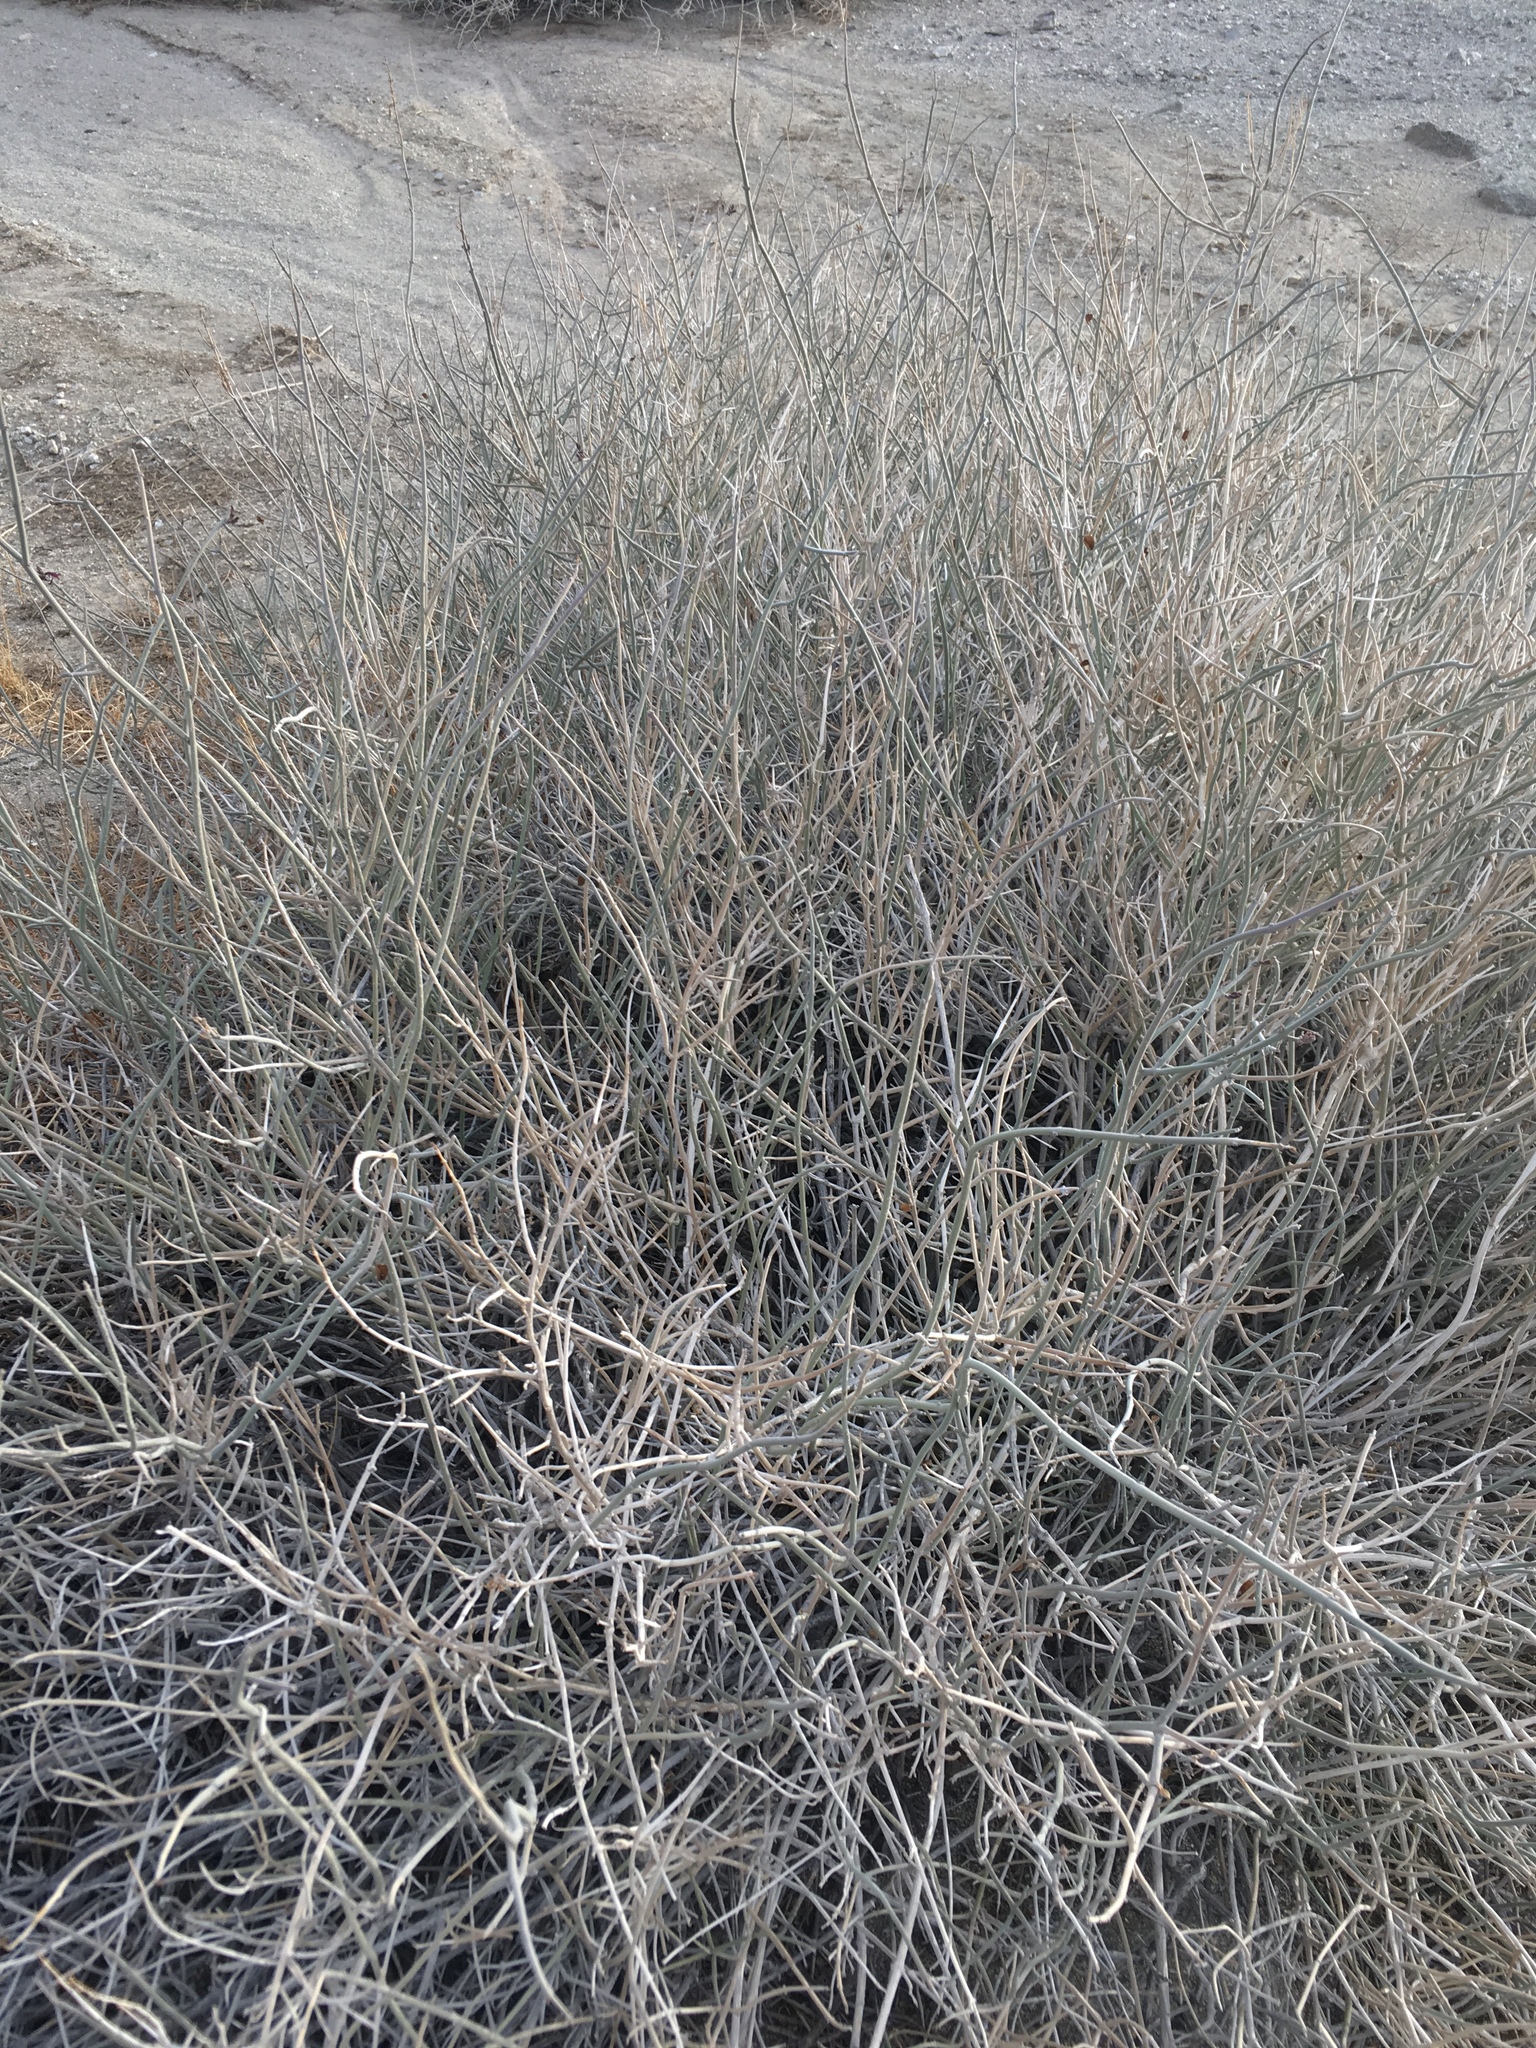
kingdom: Plantae
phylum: Tracheophyta
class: Magnoliopsida
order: Lamiales
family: Acanthaceae
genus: Justicia
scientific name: Justicia californica
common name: Chuparosa-honeysuckle
